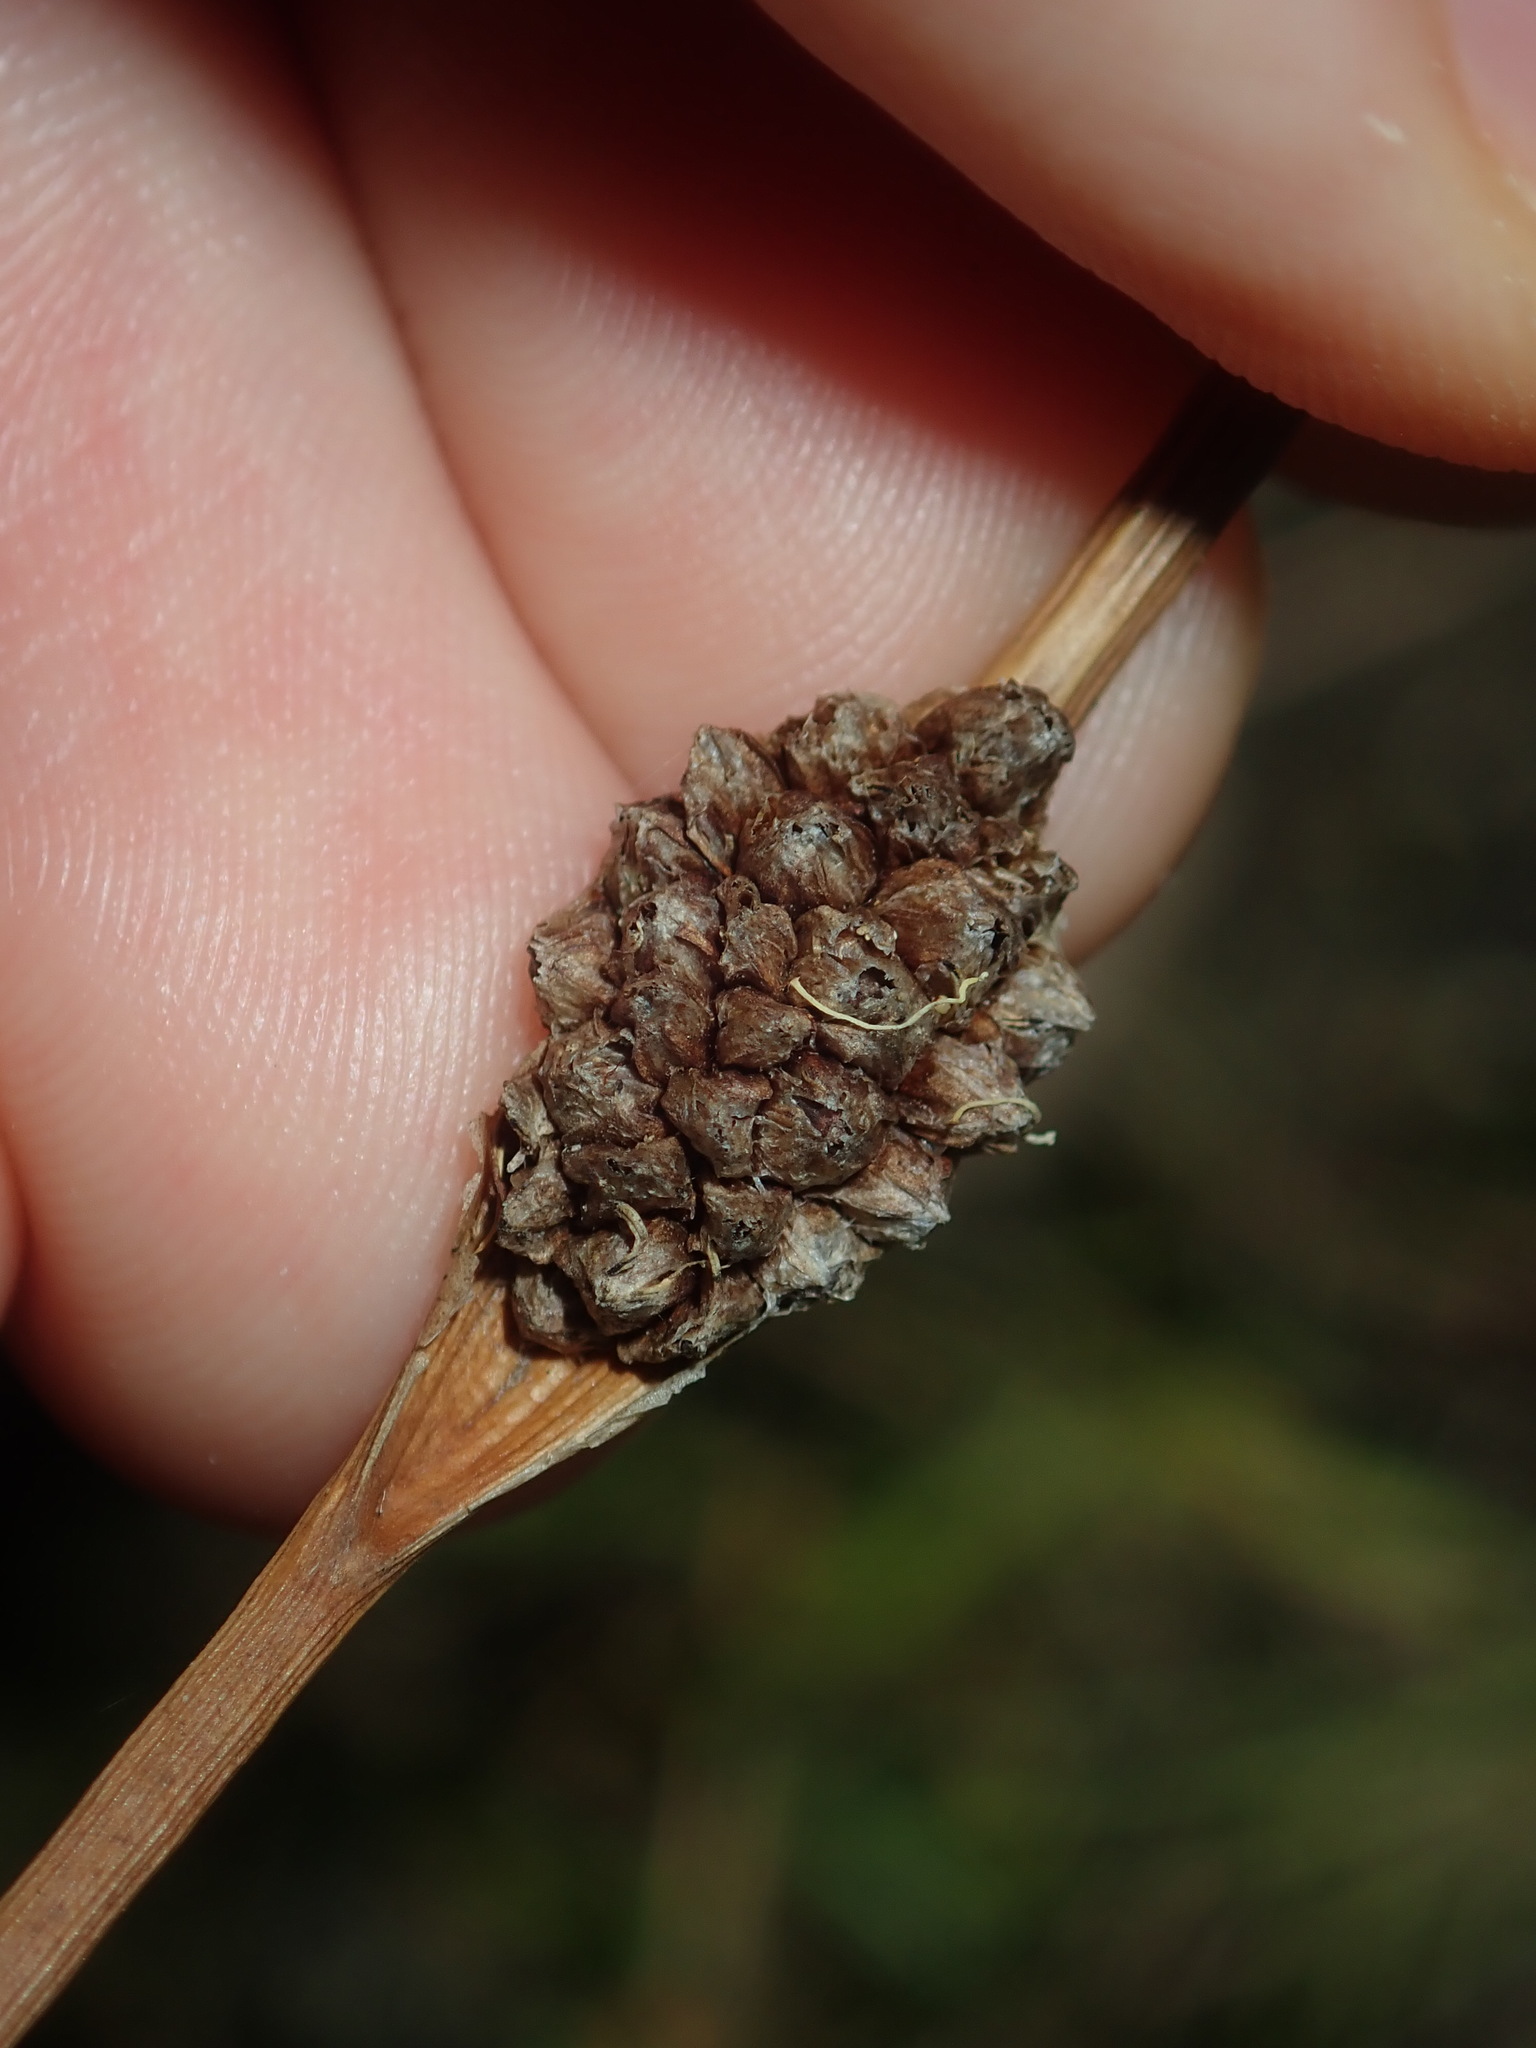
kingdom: Plantae
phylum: Tracheophyta
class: Liliopsida
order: Poales
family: Cyperaceae
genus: Chorizandra
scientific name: Chorizandra cymbaria
